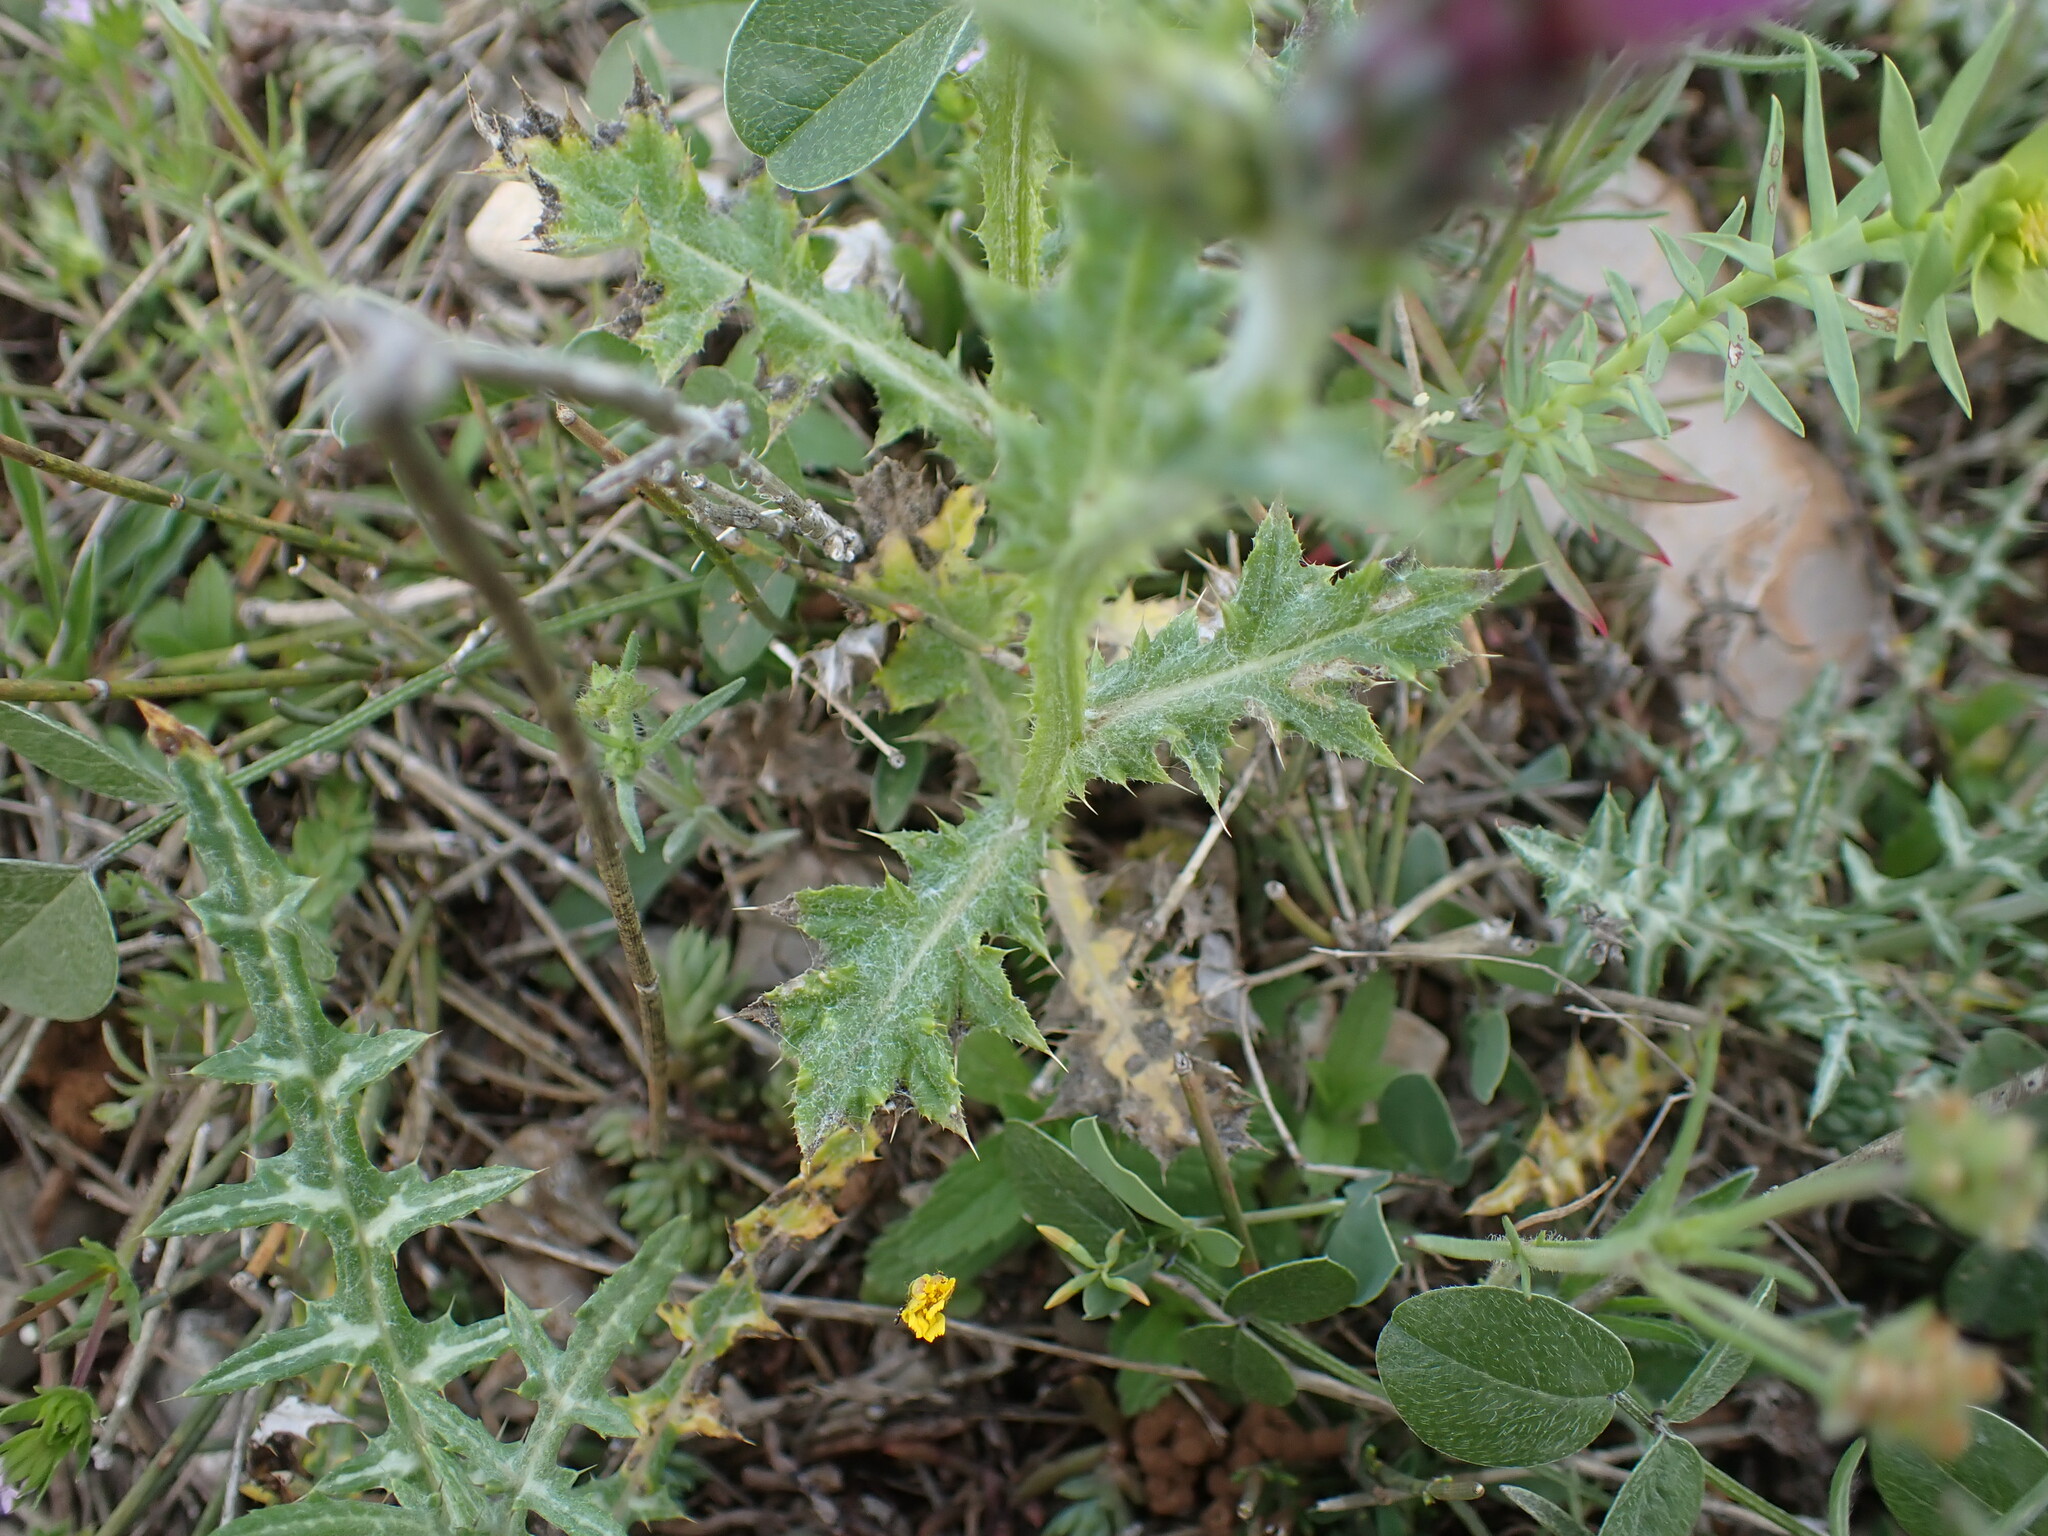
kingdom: Plantae
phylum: Tracheophyta
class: Magnoliopsida
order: Asterales
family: Asteraceae
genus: Carduus
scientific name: Carduus pycnocephalus
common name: Plymouth thistle
